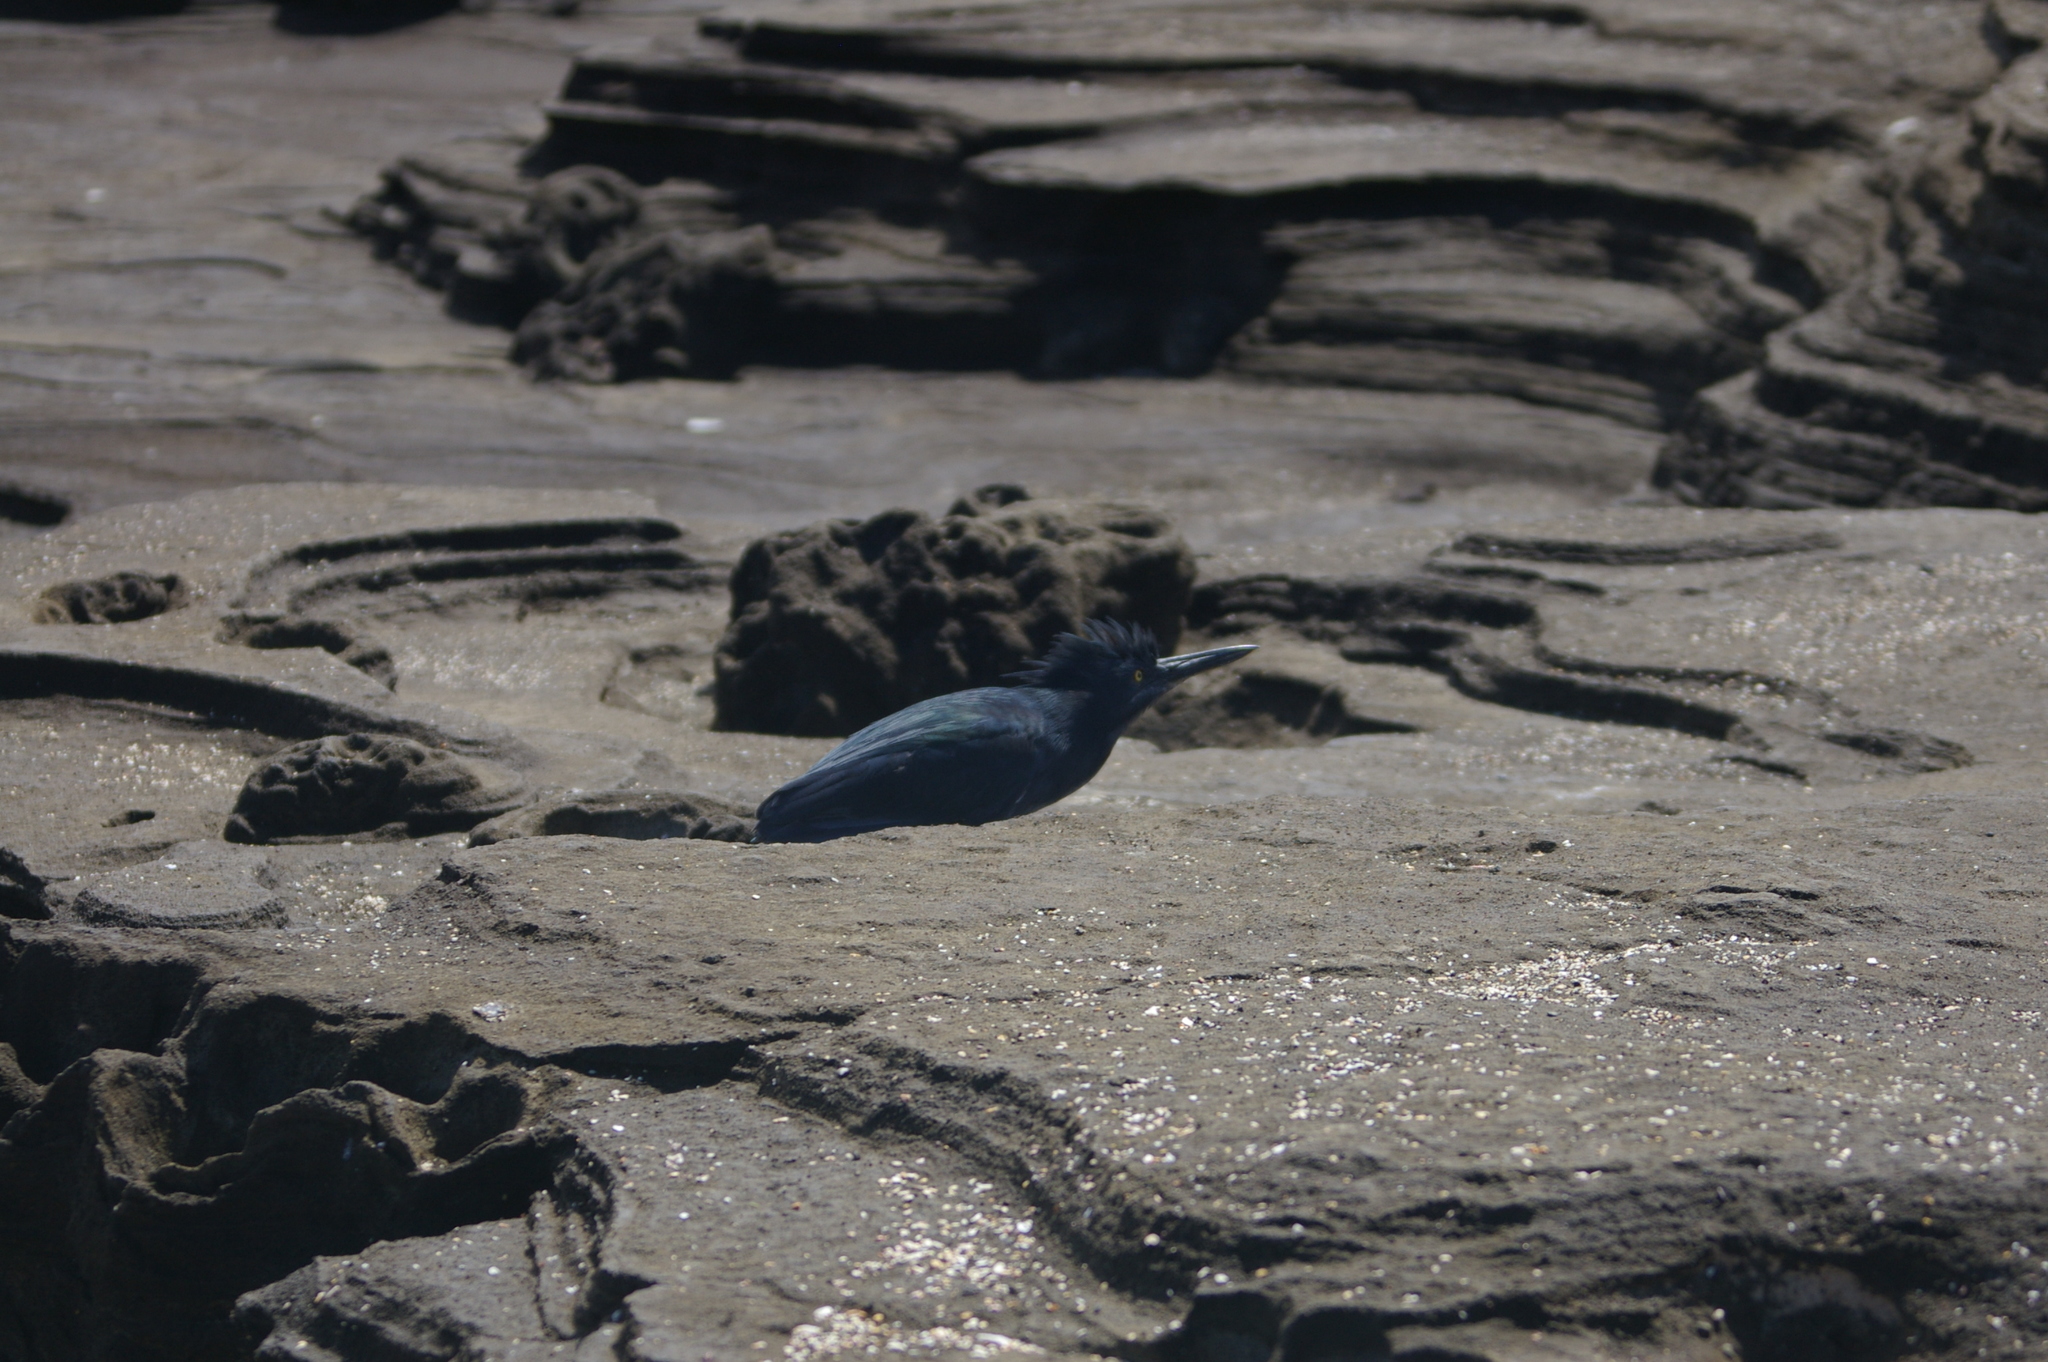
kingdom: Animalia
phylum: Chordata
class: Aves
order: Pelecaniformes
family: Ardeidae
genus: Butorides
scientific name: Butorides striata
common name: Striated heron
